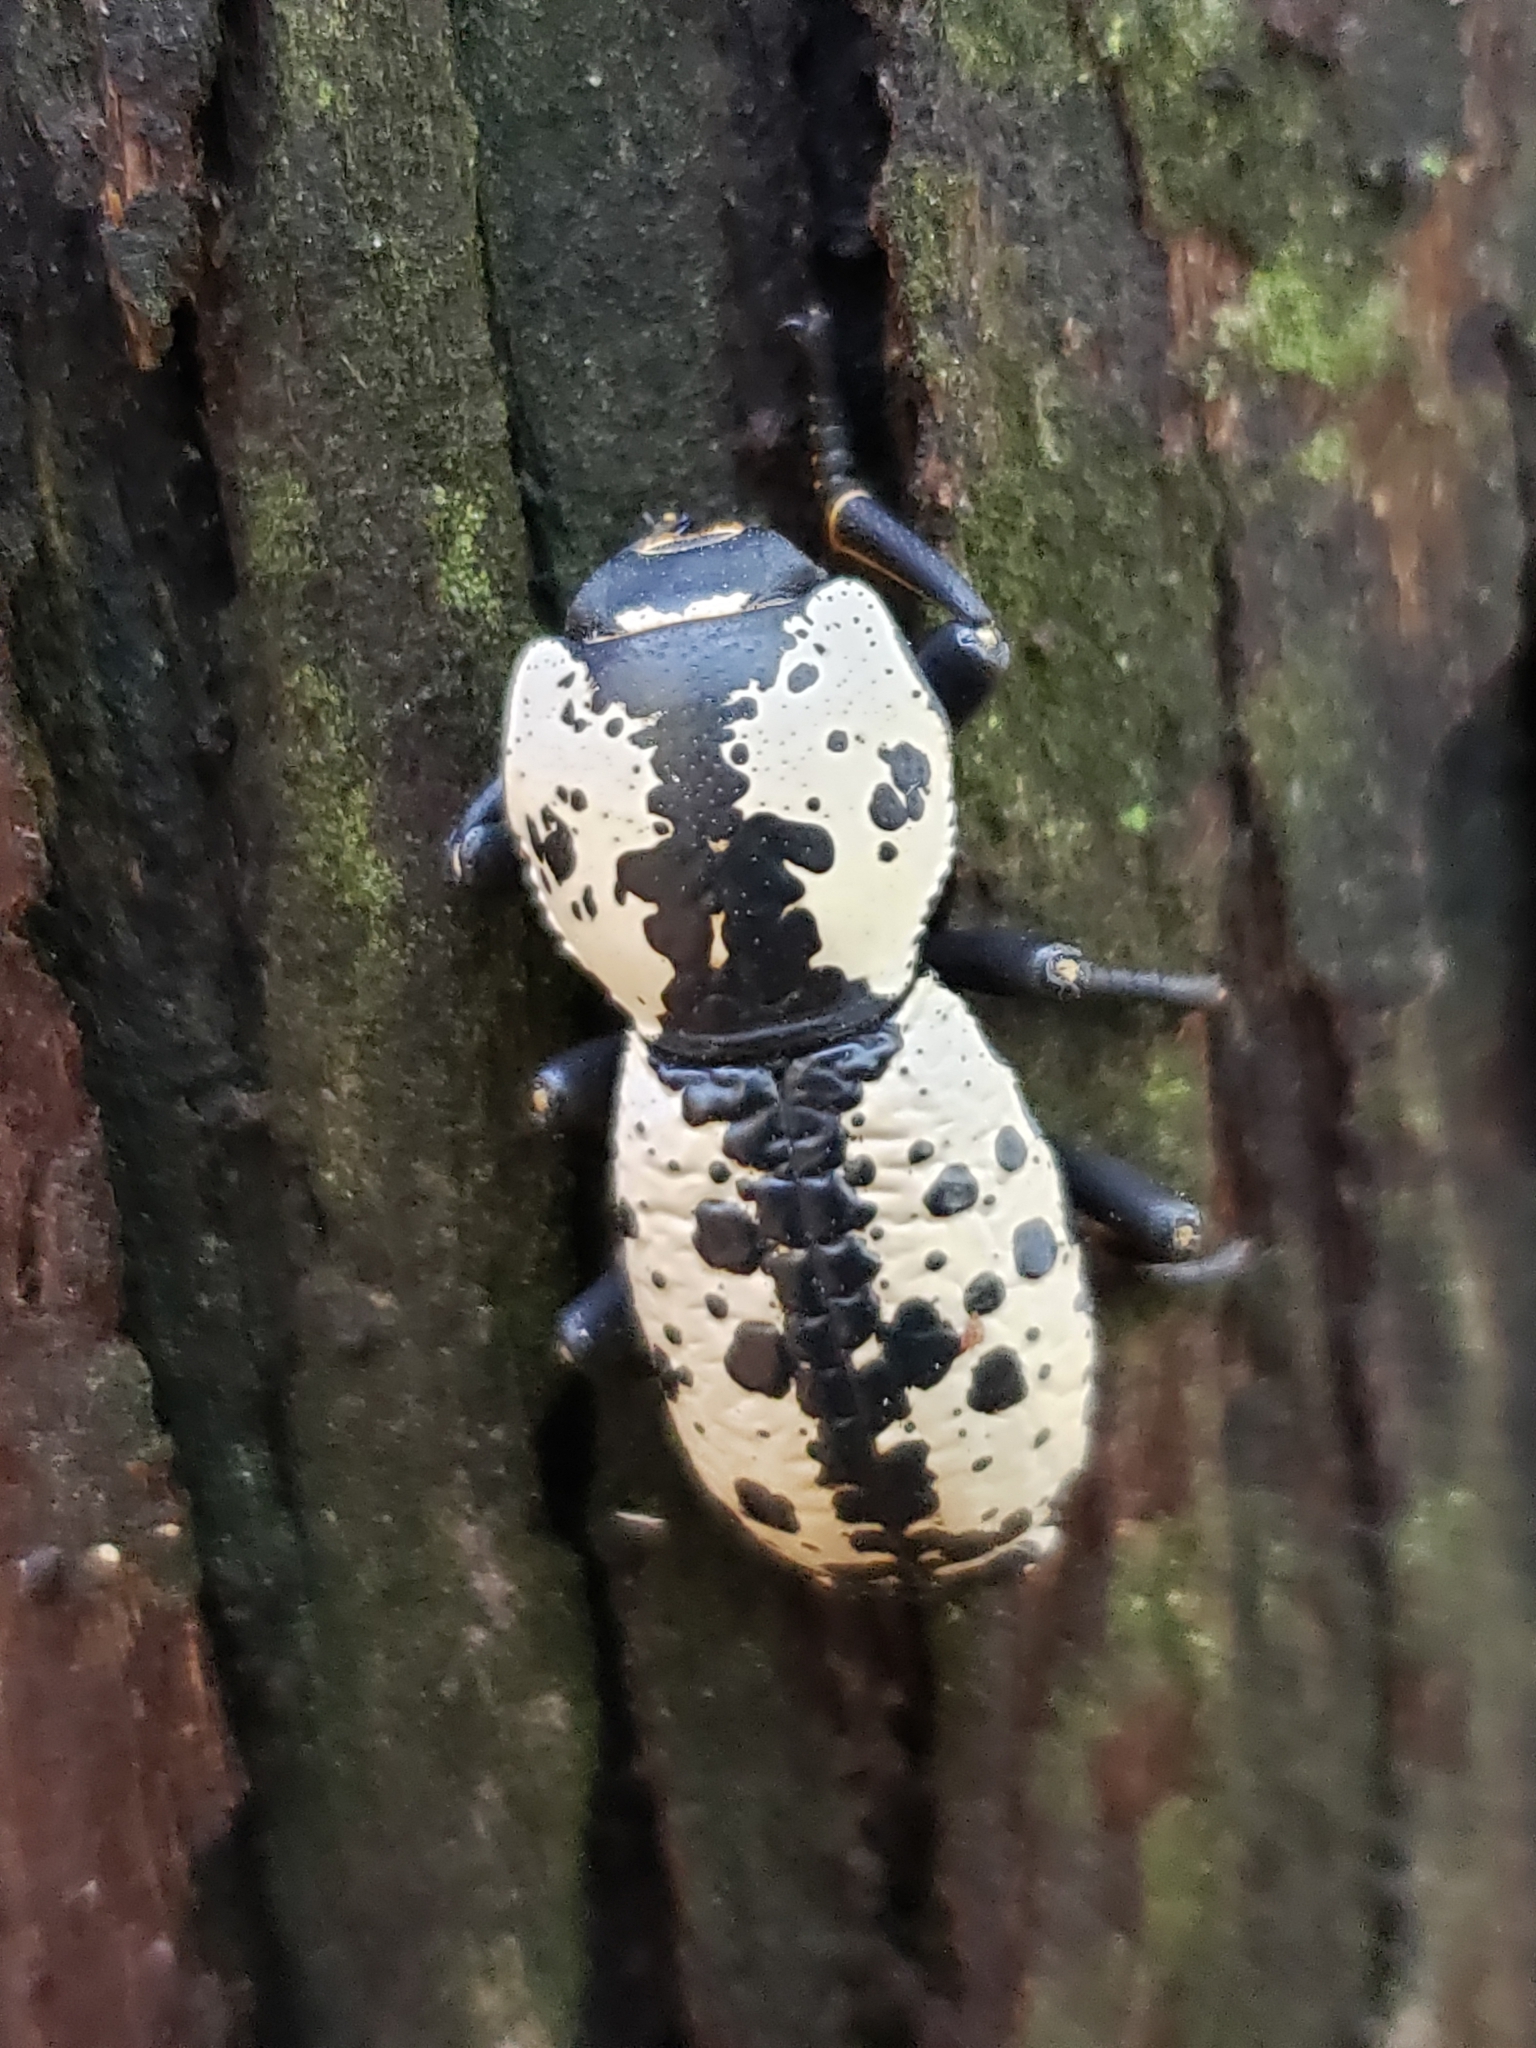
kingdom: Animalia
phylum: Arthropoda
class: Insecta
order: Coleoptera
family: Zopheridae
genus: Zopherus
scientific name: Zopherus nodulosus
